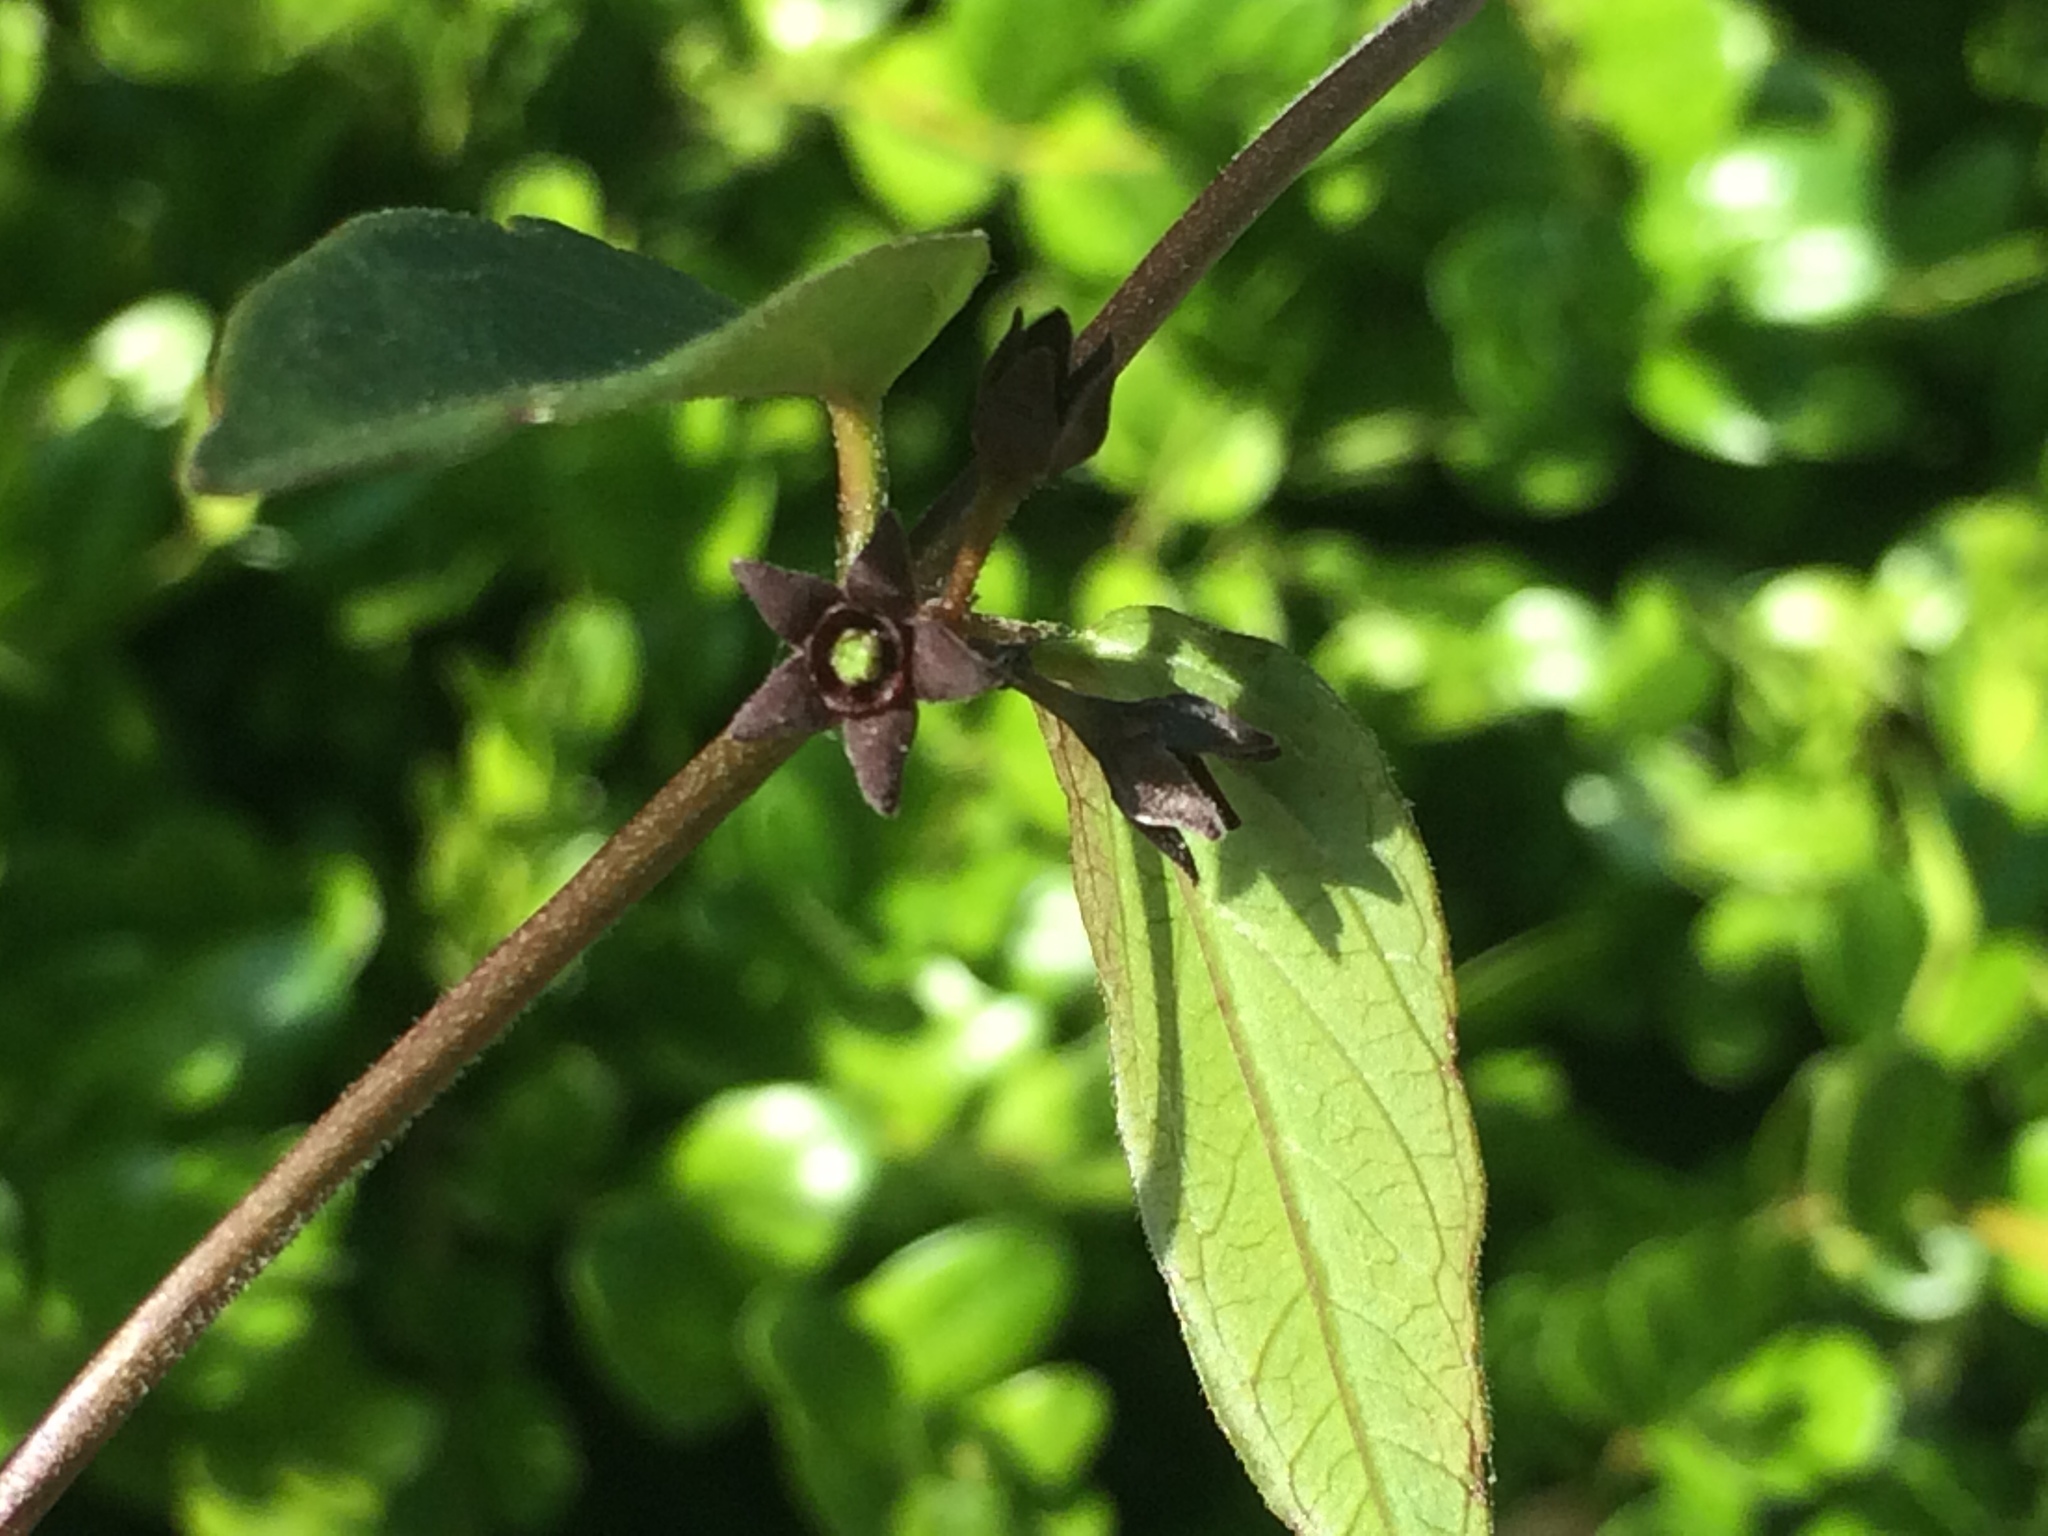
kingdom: Plantae
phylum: Tracheophyta
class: Magnoliopsida
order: Gentianales
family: Apocynaceae
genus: Vincetoxicum
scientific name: Vincetoxicum nigrum
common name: Black swallow-wort
